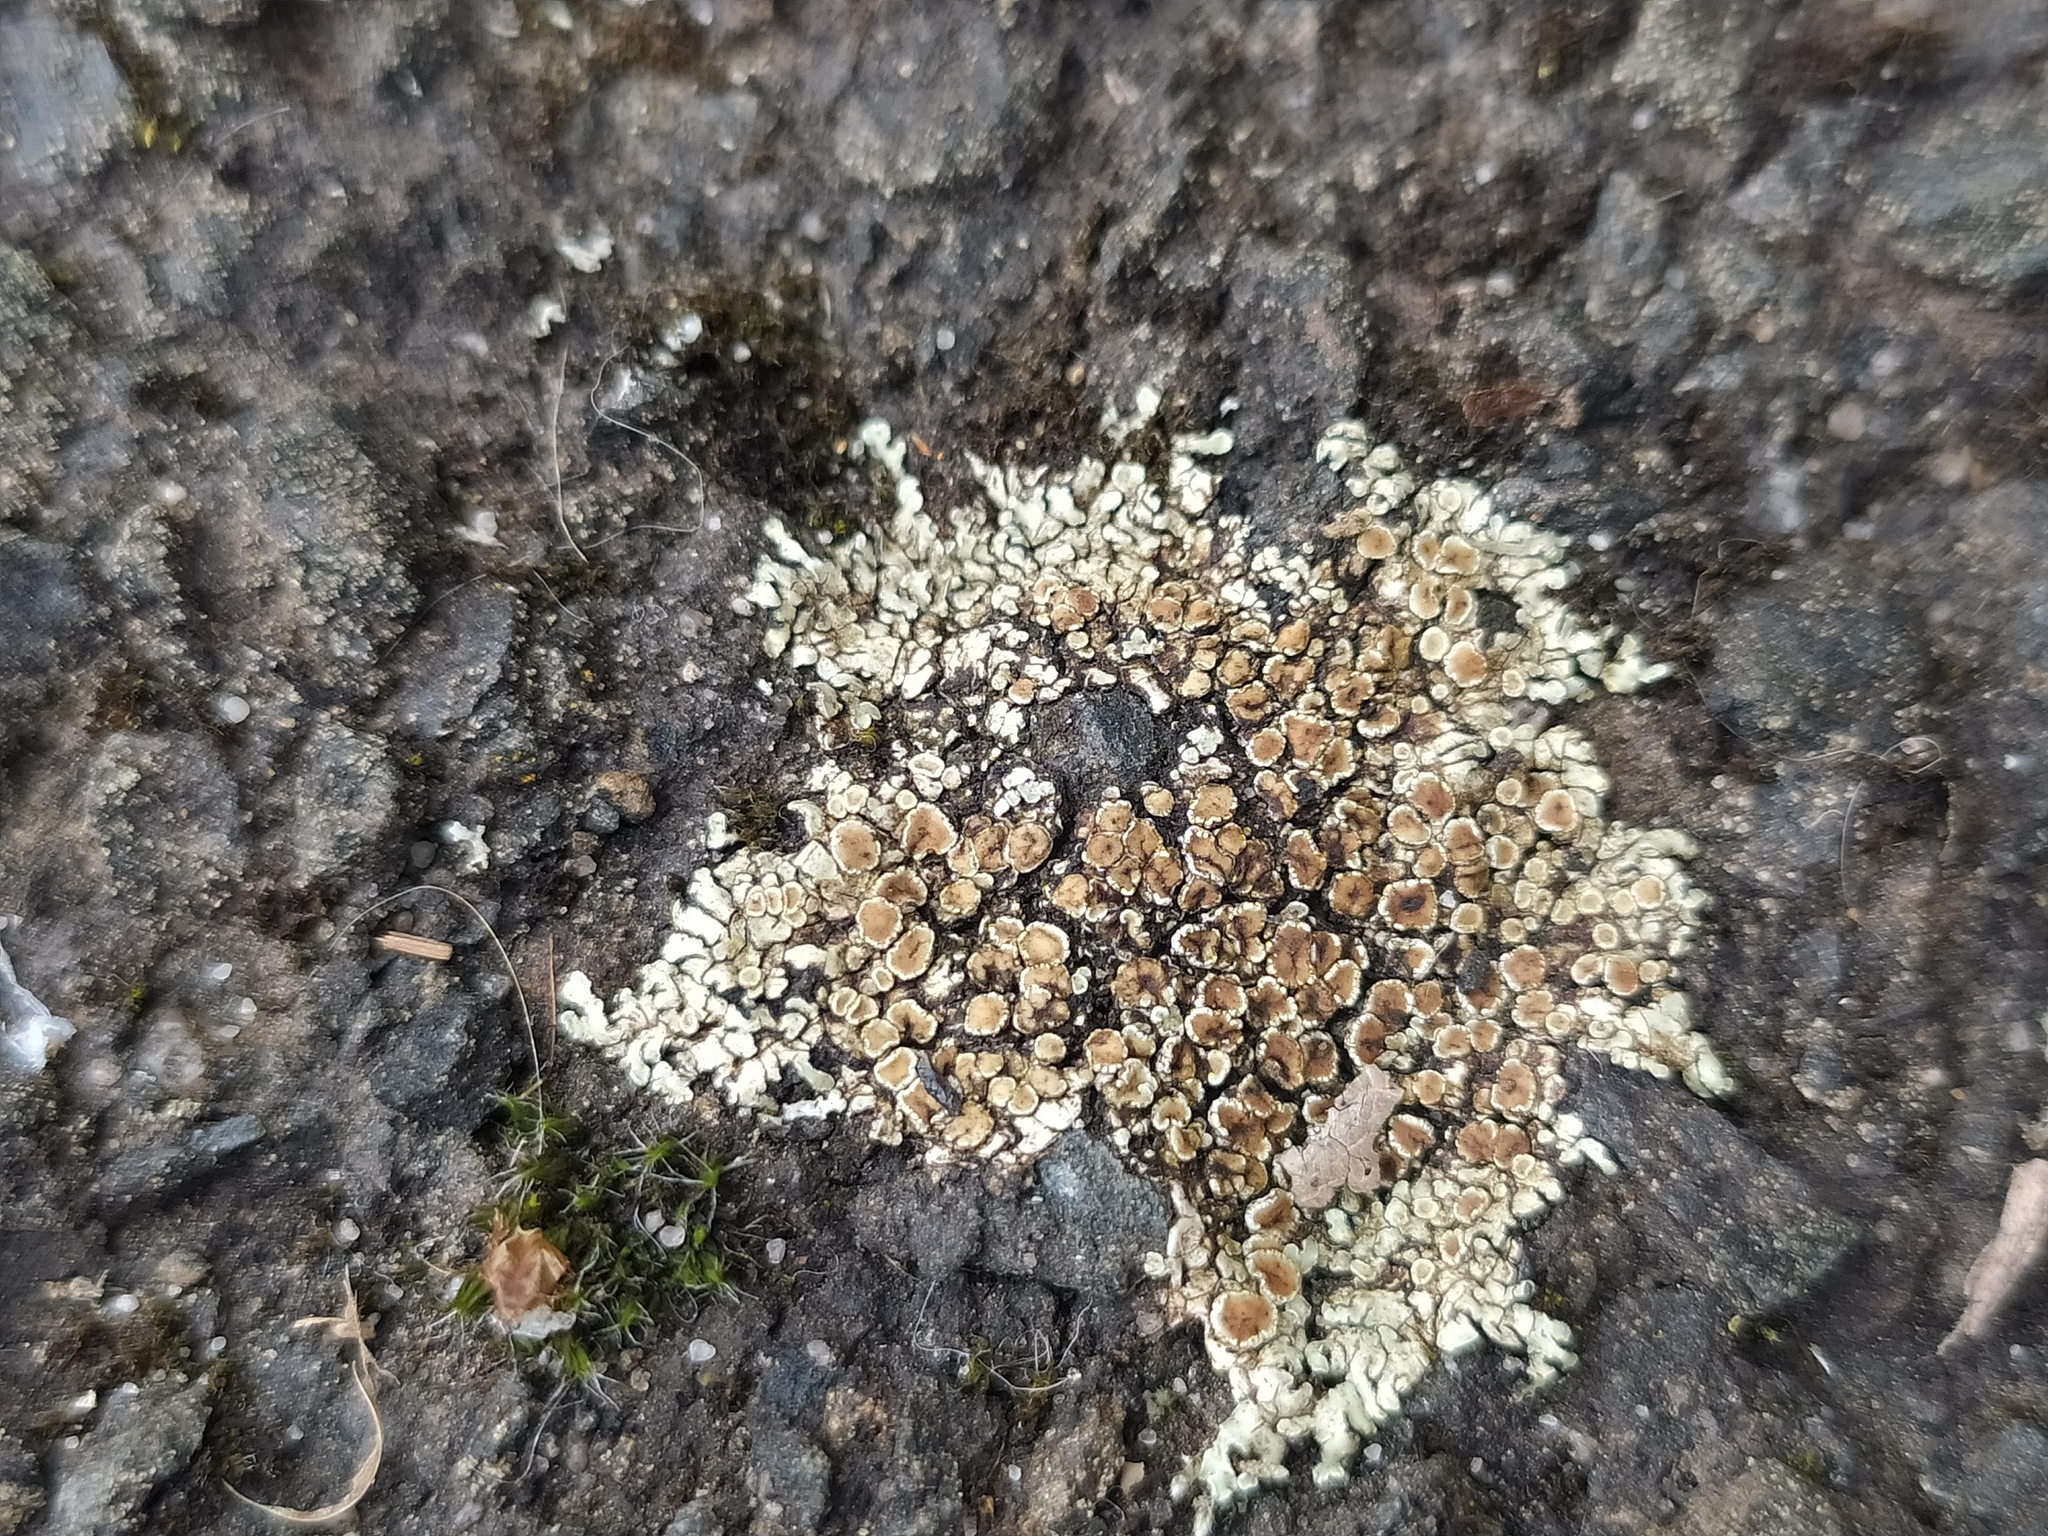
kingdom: Fungi
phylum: Ascomycota
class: Lecanoromycetes
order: Lecanorales
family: Lecanoraceae
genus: Protoparmeliopsis
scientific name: Protoparmeliopsis muralis
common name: Stonewall rim lichen
